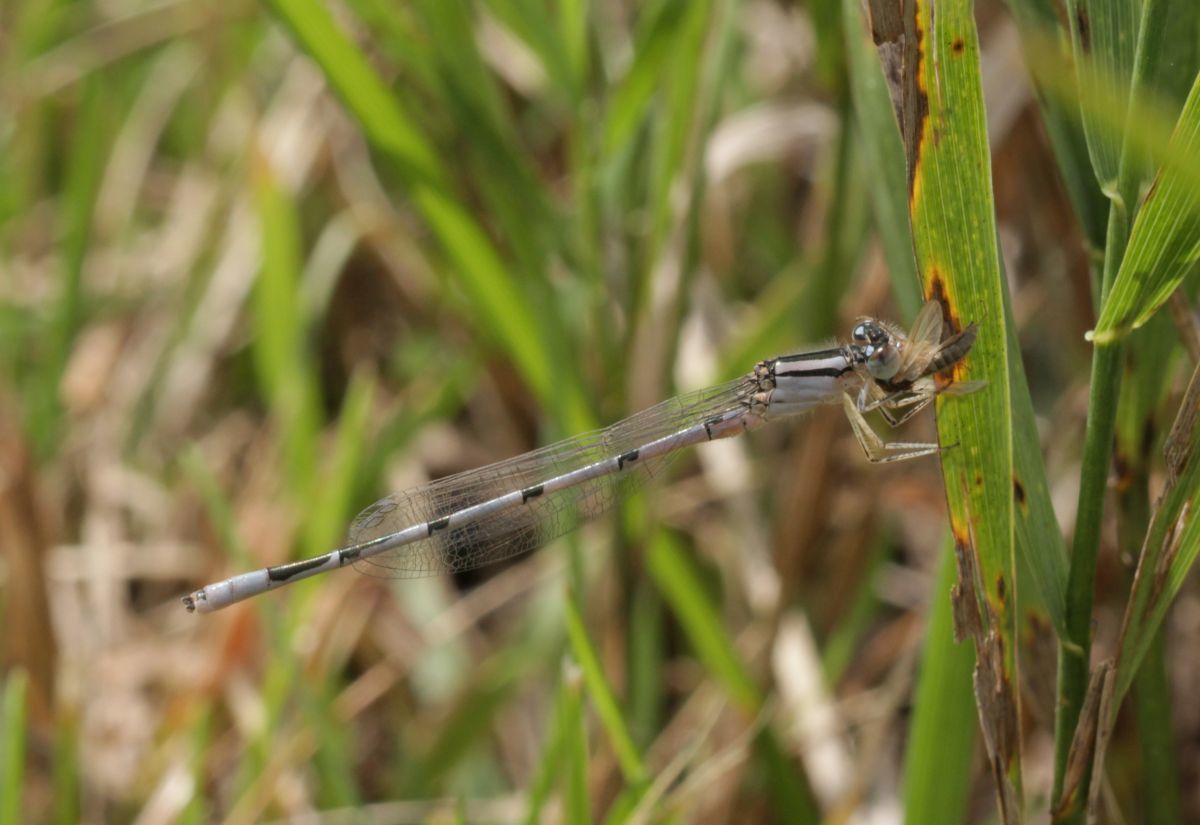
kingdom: Animalia
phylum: Arthropoda
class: Insecta
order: Odonata
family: Coenagrionidae
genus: Enallagma
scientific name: Enallagma civile
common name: Damselfly
